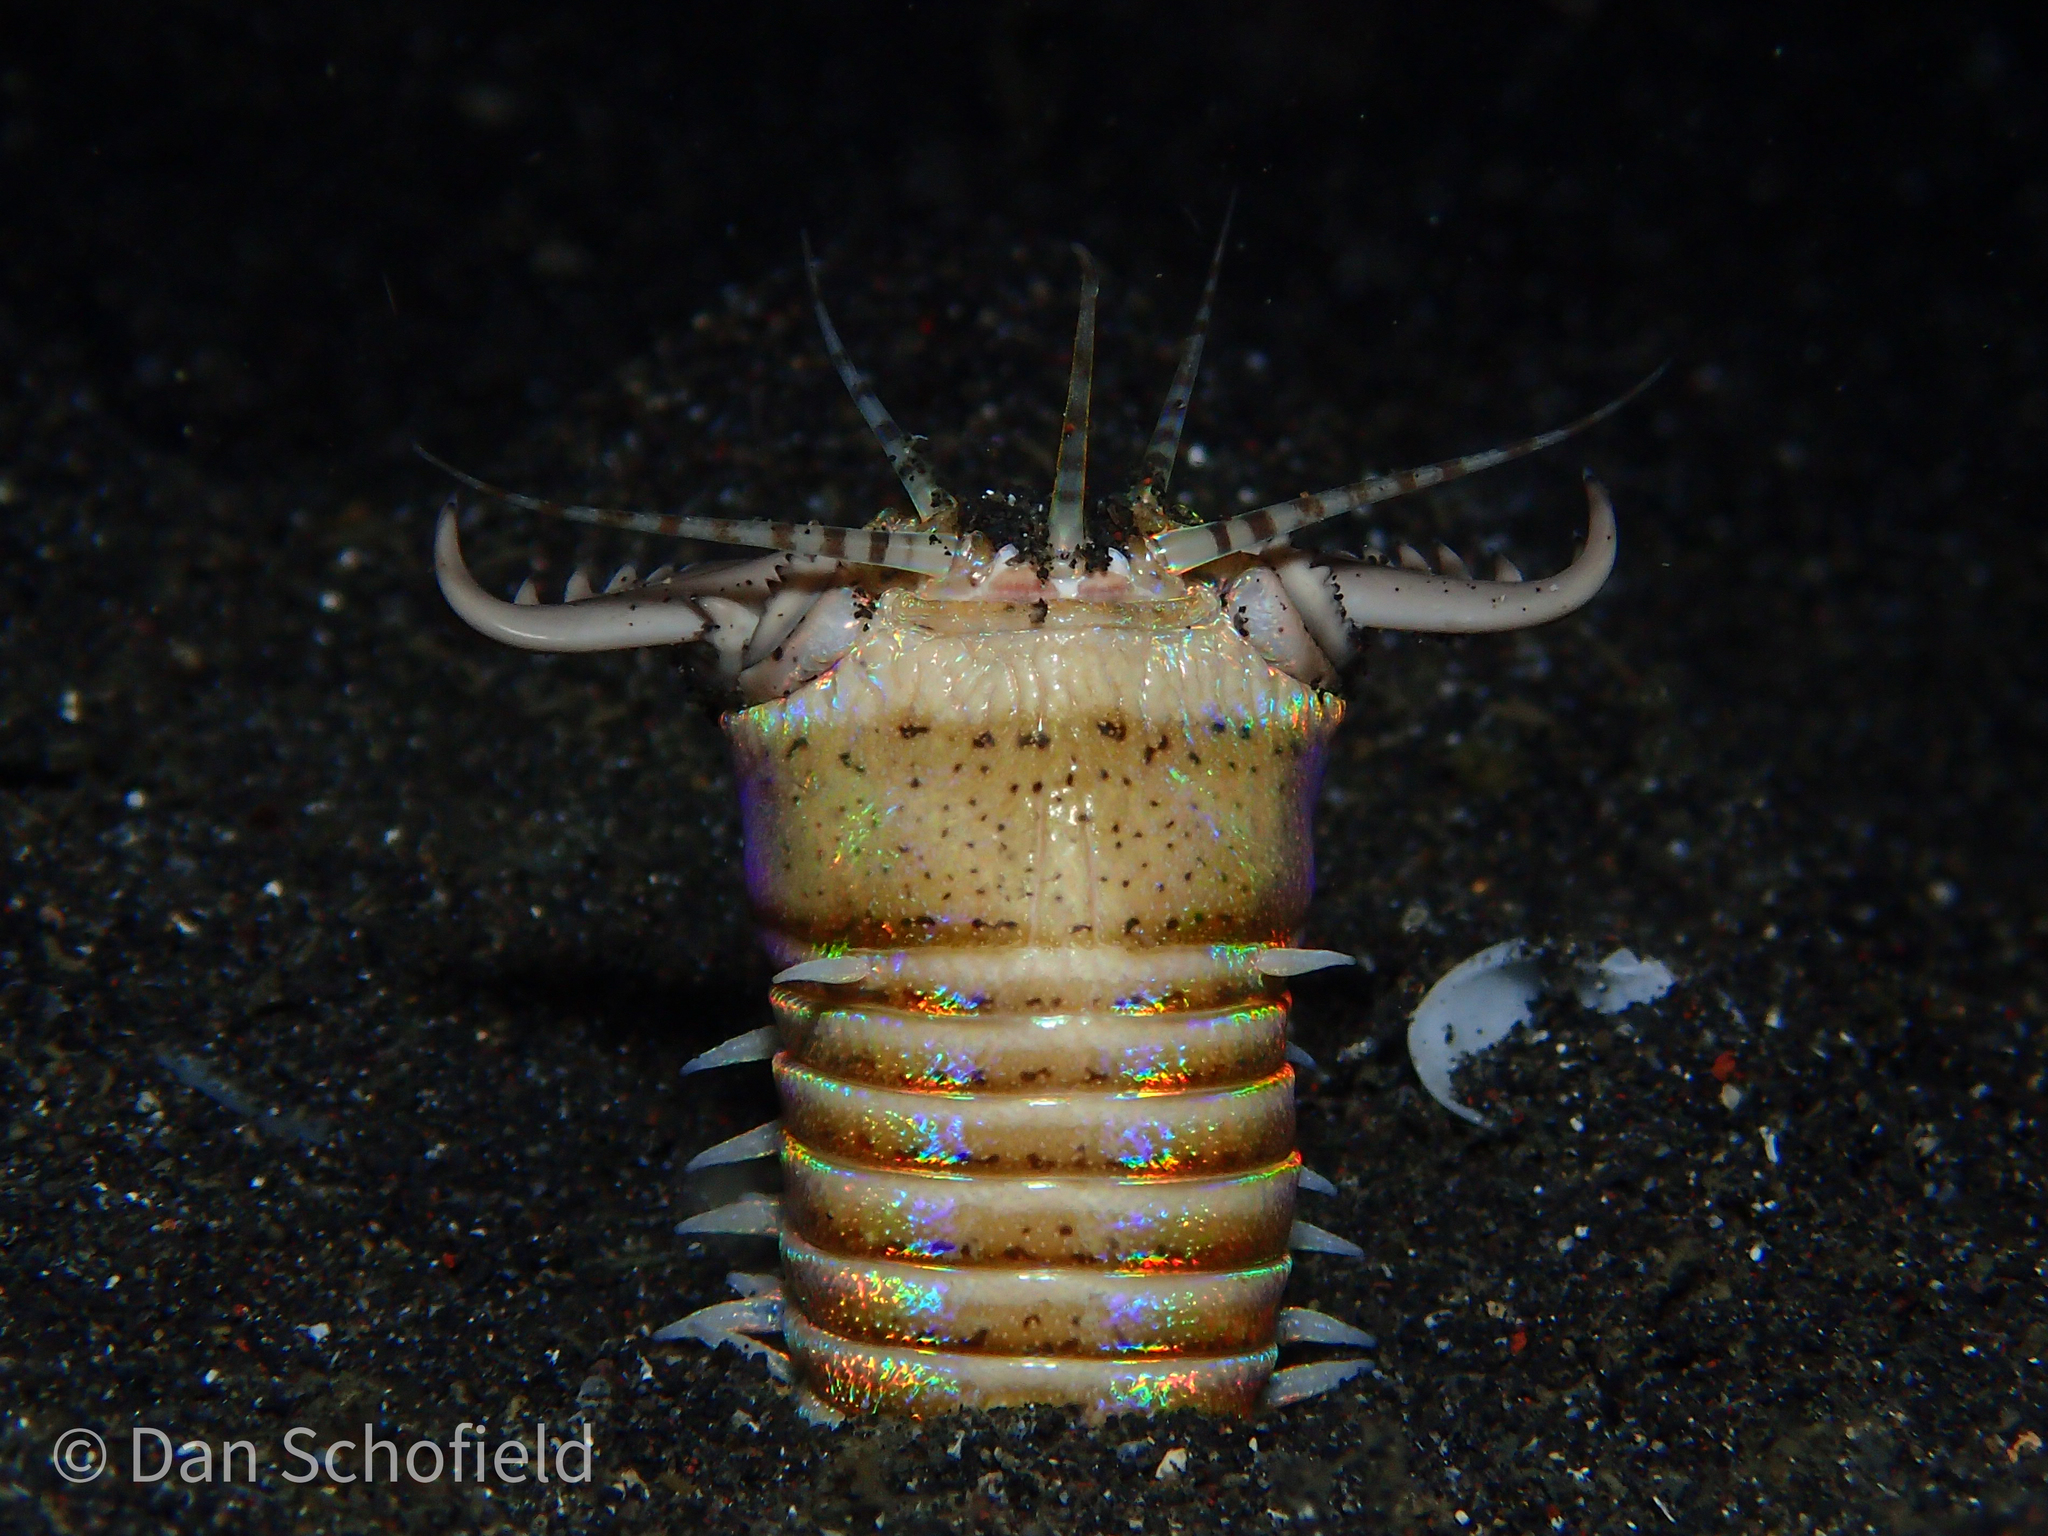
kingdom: Animalia
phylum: Annelida
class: Polychaeta
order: Eunicida
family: Eunicidae
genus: Eunice
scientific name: Eunice aphroditois
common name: Wonder-worm
